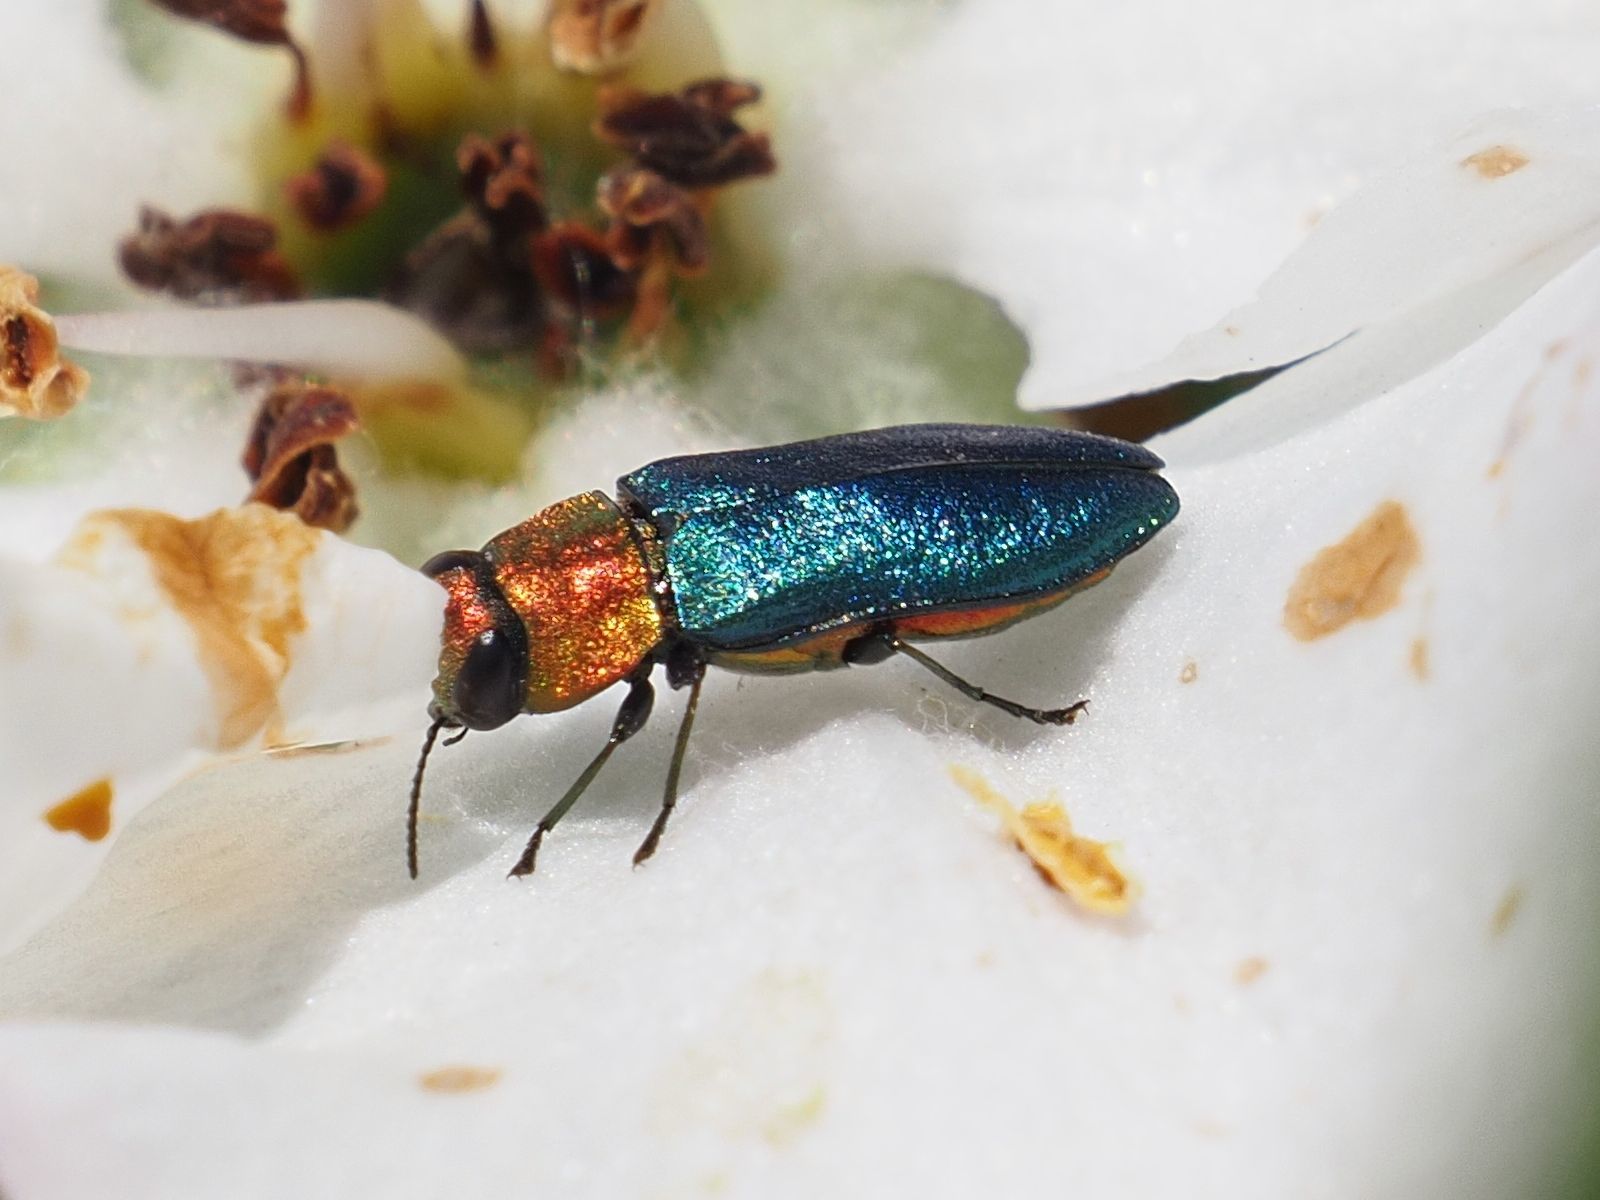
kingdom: Animalia
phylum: Arthropoda
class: Insecta
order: Coleoptera
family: Buprestidae
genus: Anthaxia
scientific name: Anthaxia nitidula
